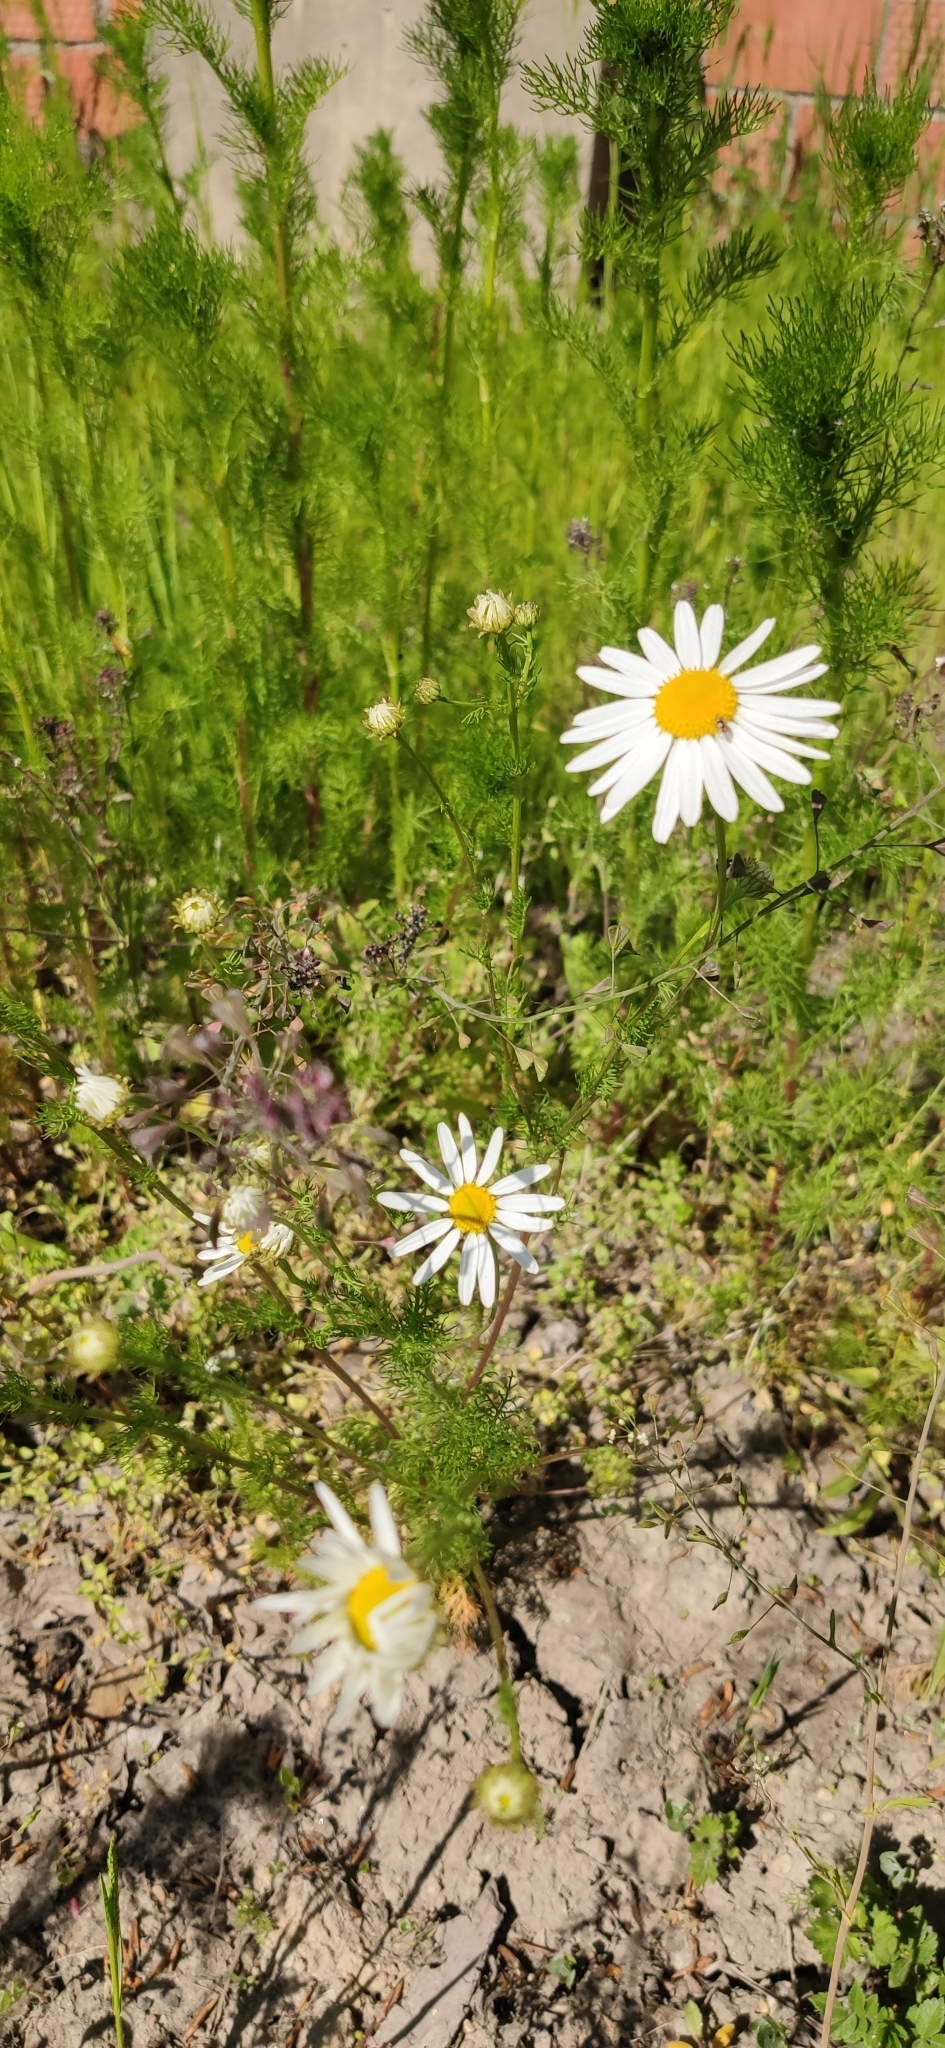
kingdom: Plantae
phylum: Tracheophyta
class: Magnoliopsida
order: Asterales
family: Asteraceae
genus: Tripleurospermum
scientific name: Tripleurospermum inodorum
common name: Scentless mayweed
